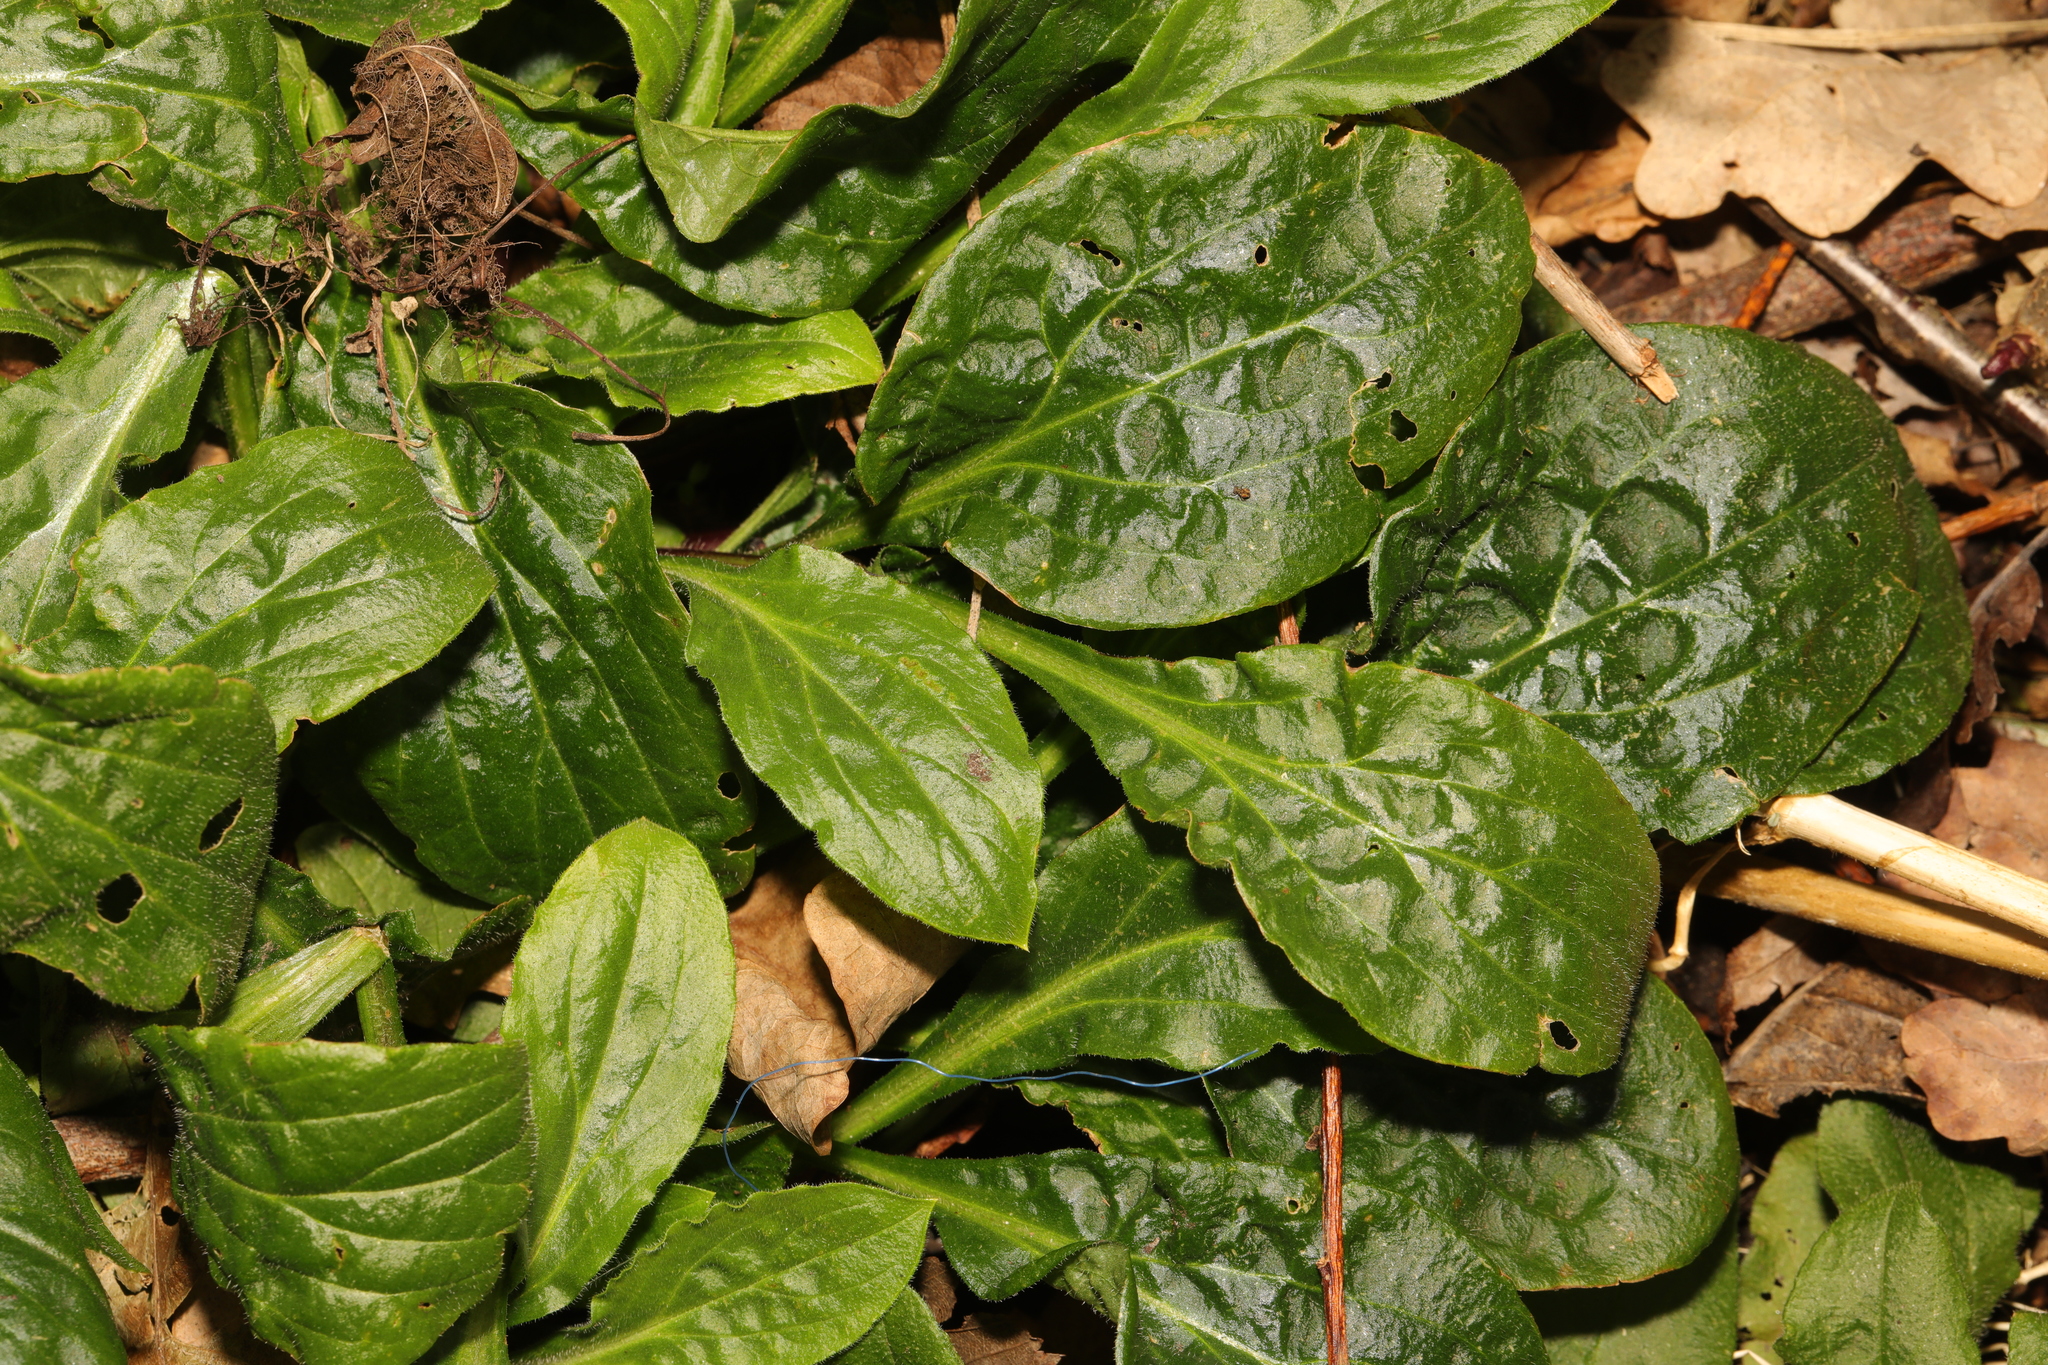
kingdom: Plantae
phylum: Tracheophyta
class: Magnoliopsida
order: Caryophyllales
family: Caryophyllaceae
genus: Silene
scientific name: Silene dioica
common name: Red campion
